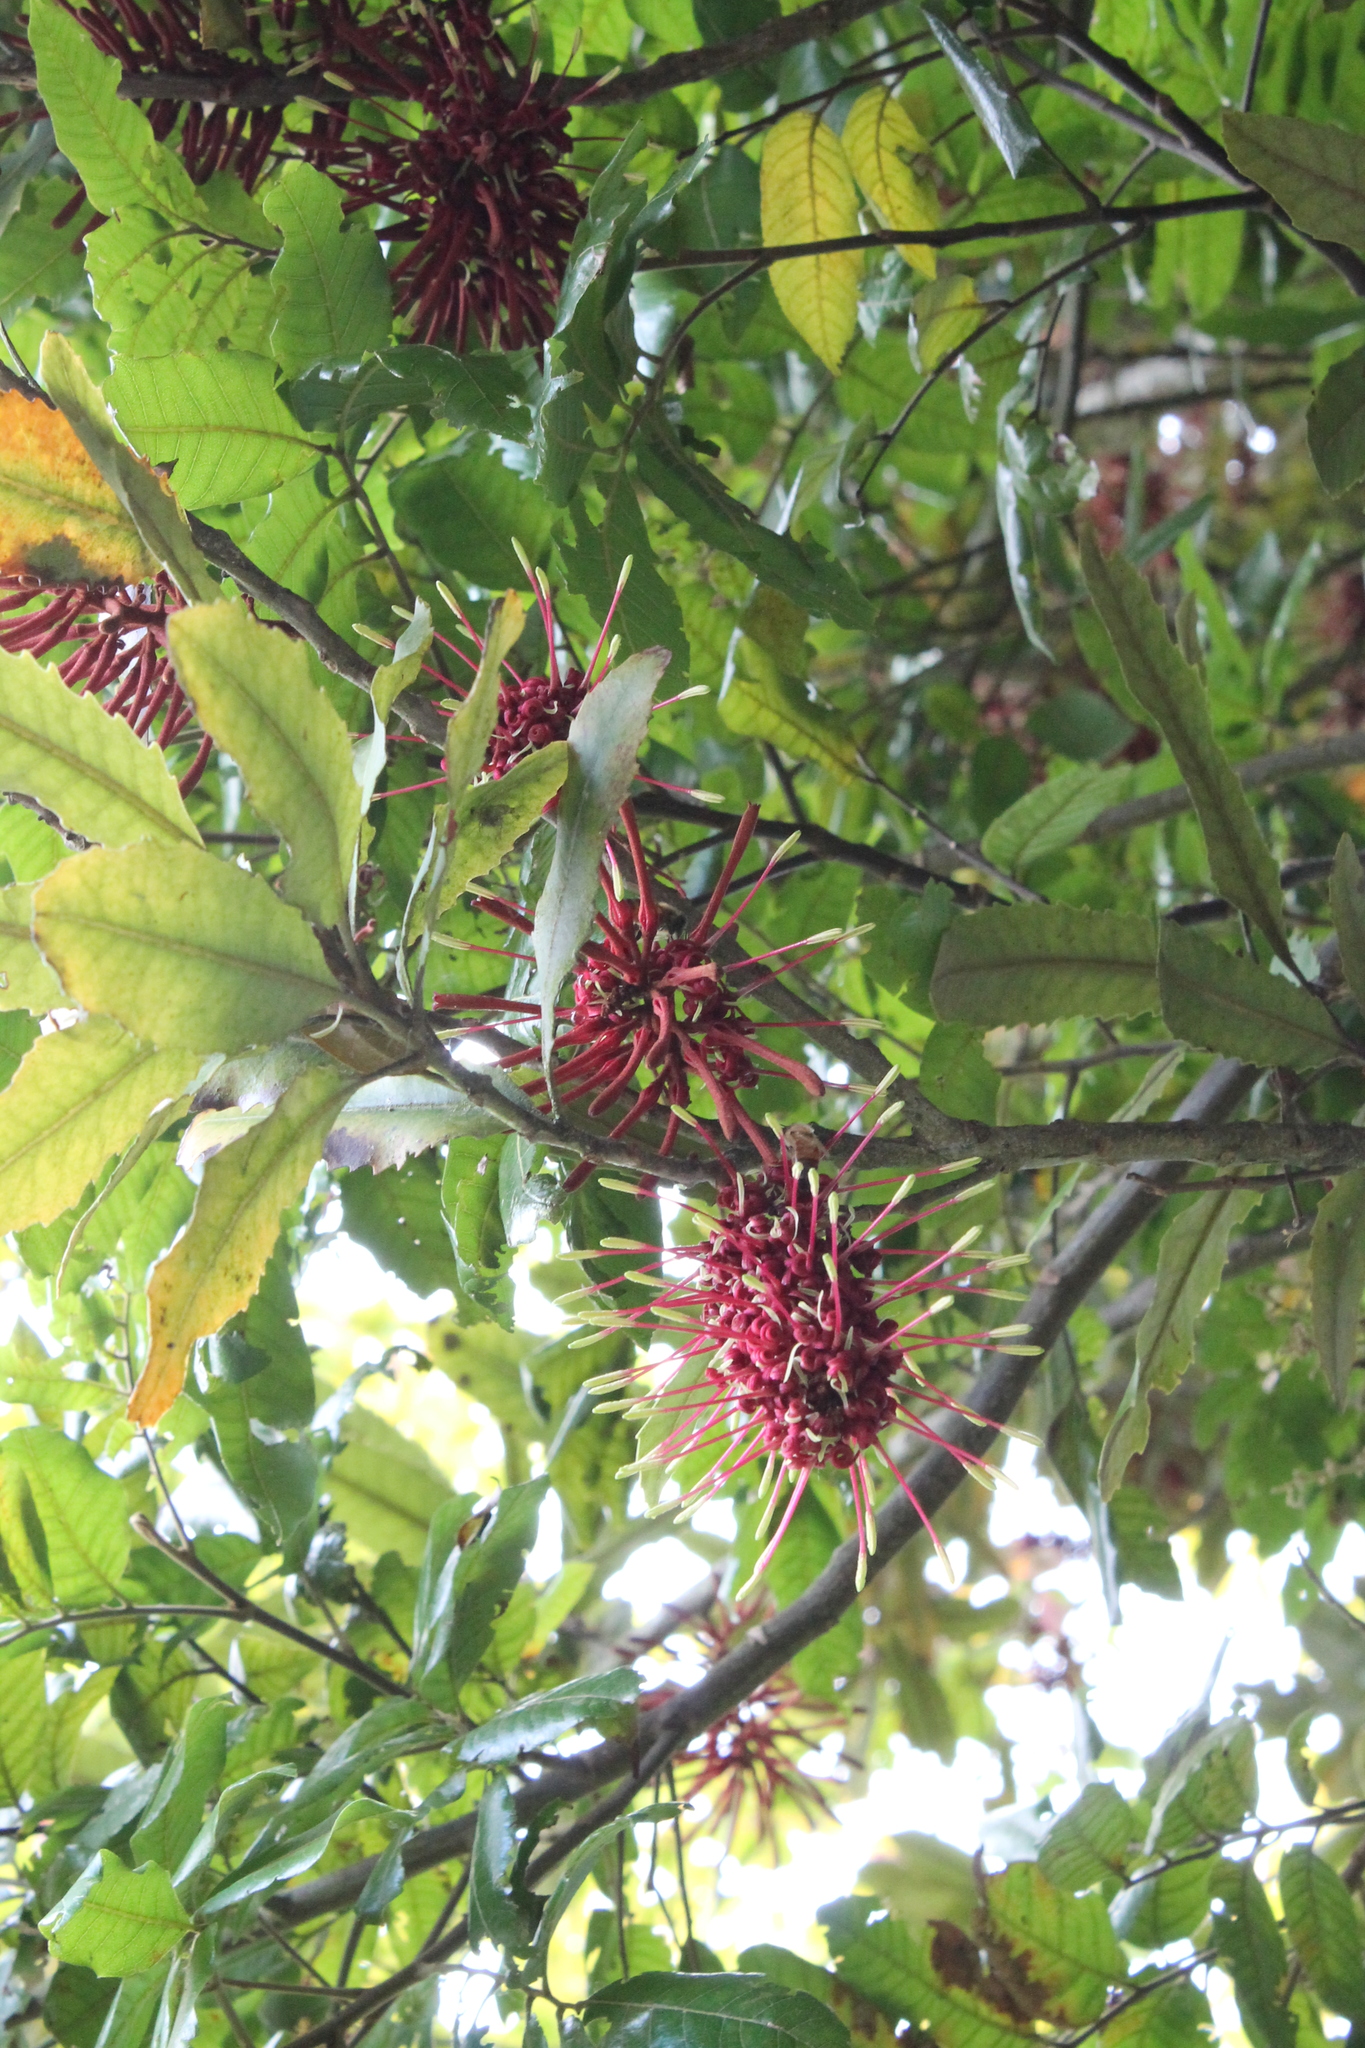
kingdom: Plantae
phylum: Tracheophyta
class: Magnoliopsida
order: Proteales
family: Proteaceae
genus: Knightia
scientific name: Knightia excelsa
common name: New zealand-honeysuckle
